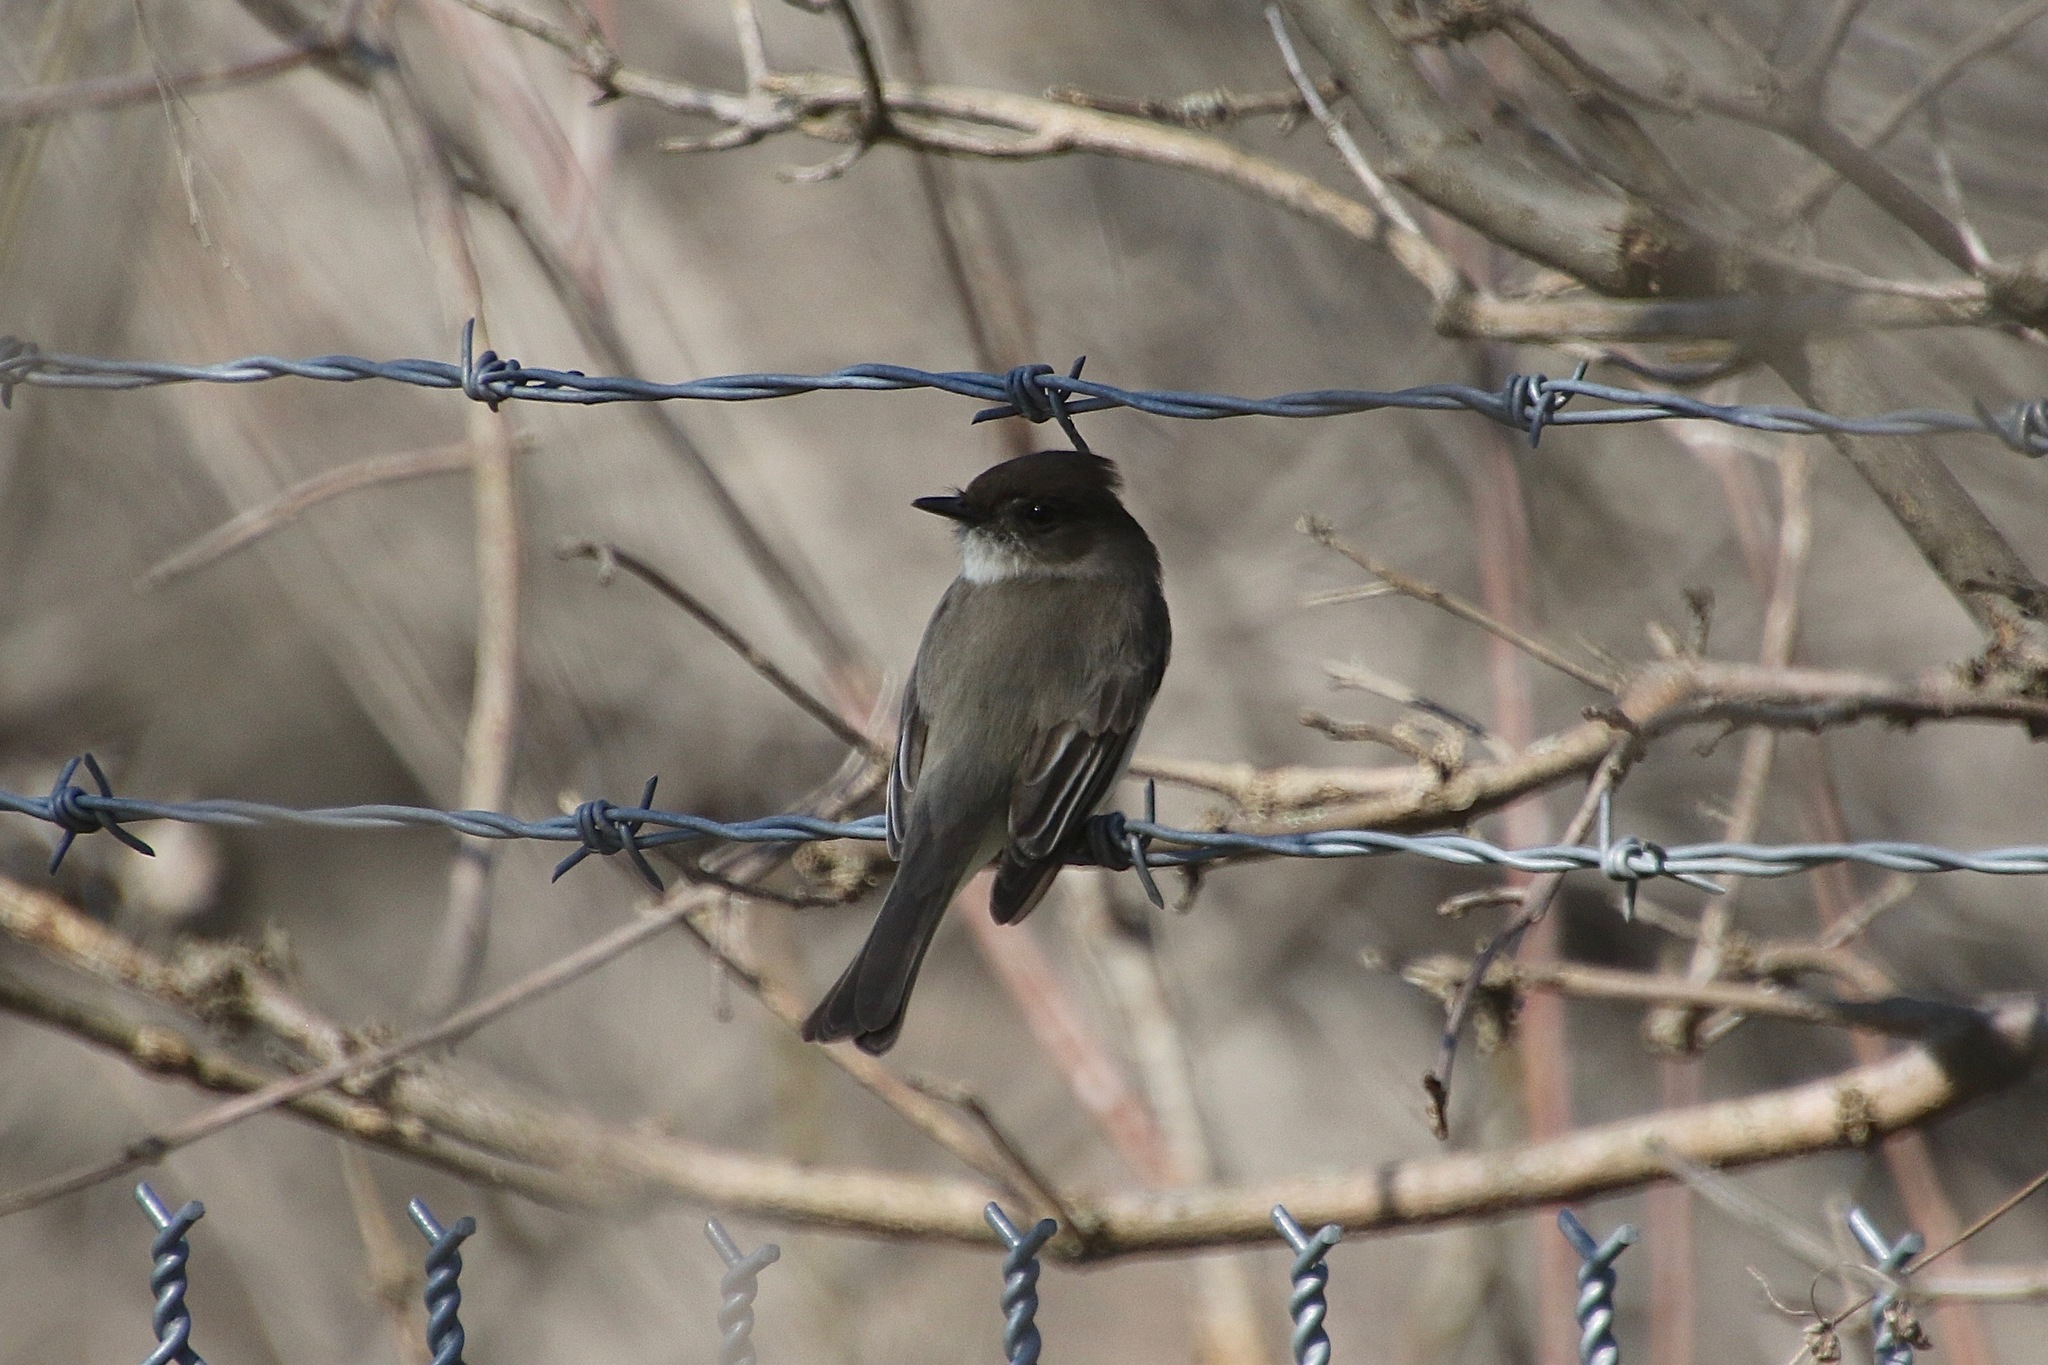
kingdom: Animalia
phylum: Chordata
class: Aves
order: Passeriformes
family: Tyrannidae
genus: Sayornis
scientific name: Sayornis phoebe
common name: Eastern phoebe
